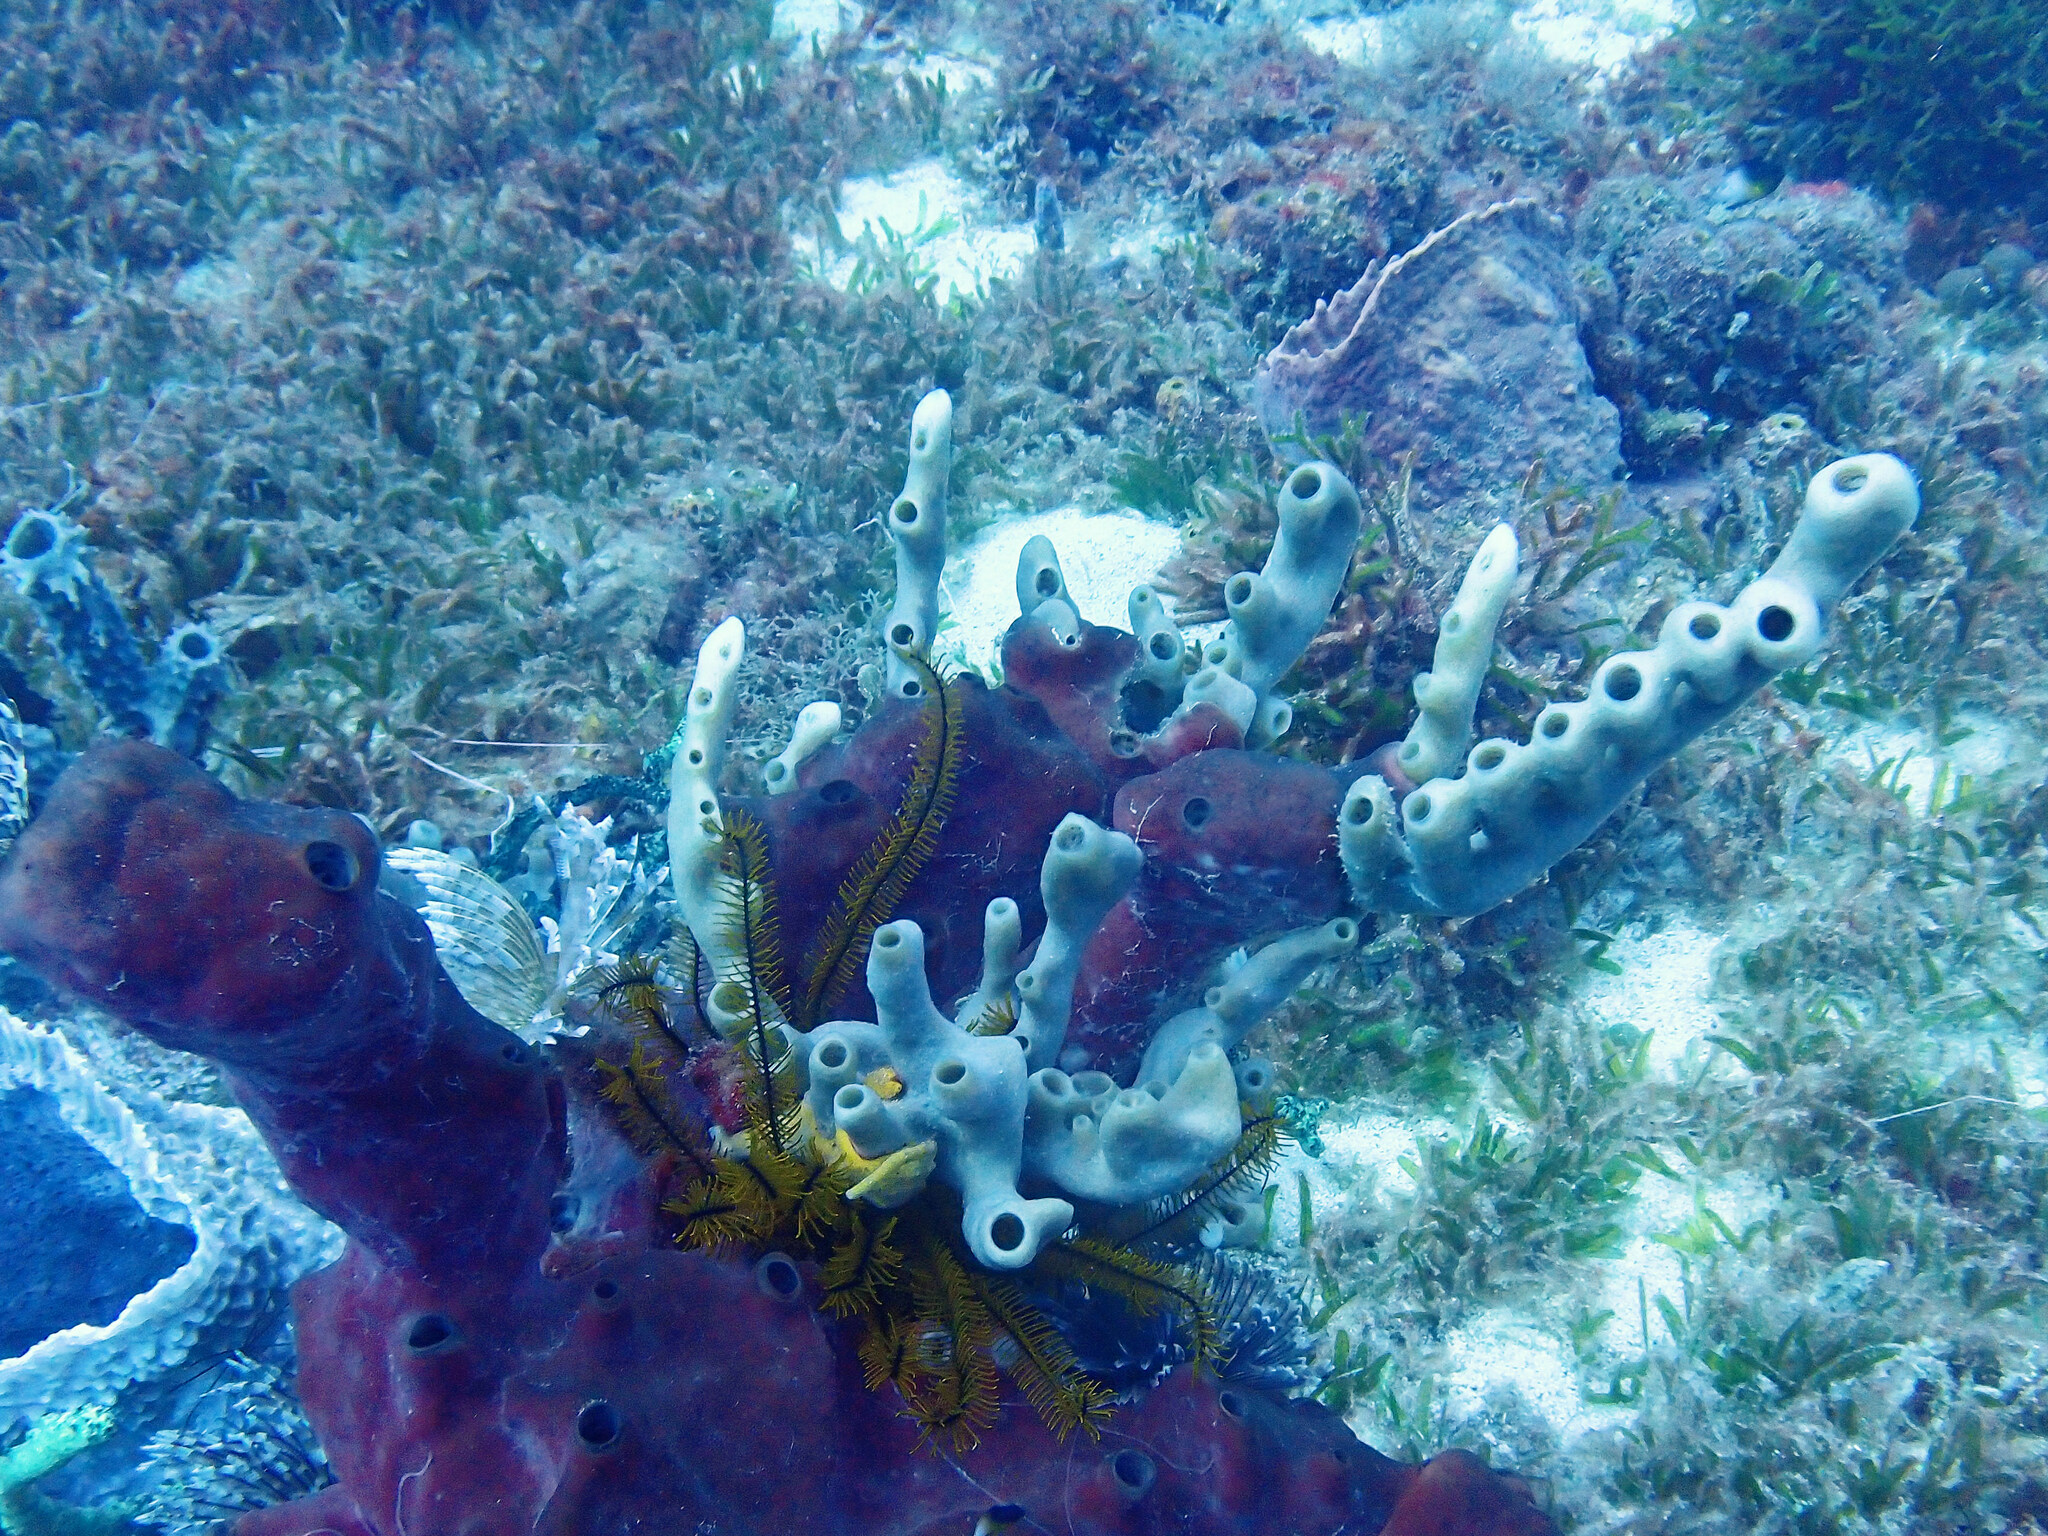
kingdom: Animalia
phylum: Porifera
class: Demospongiae
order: Haplosclerida
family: Callyspongiidae
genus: Callyspongia
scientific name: Callyspongia fallax
